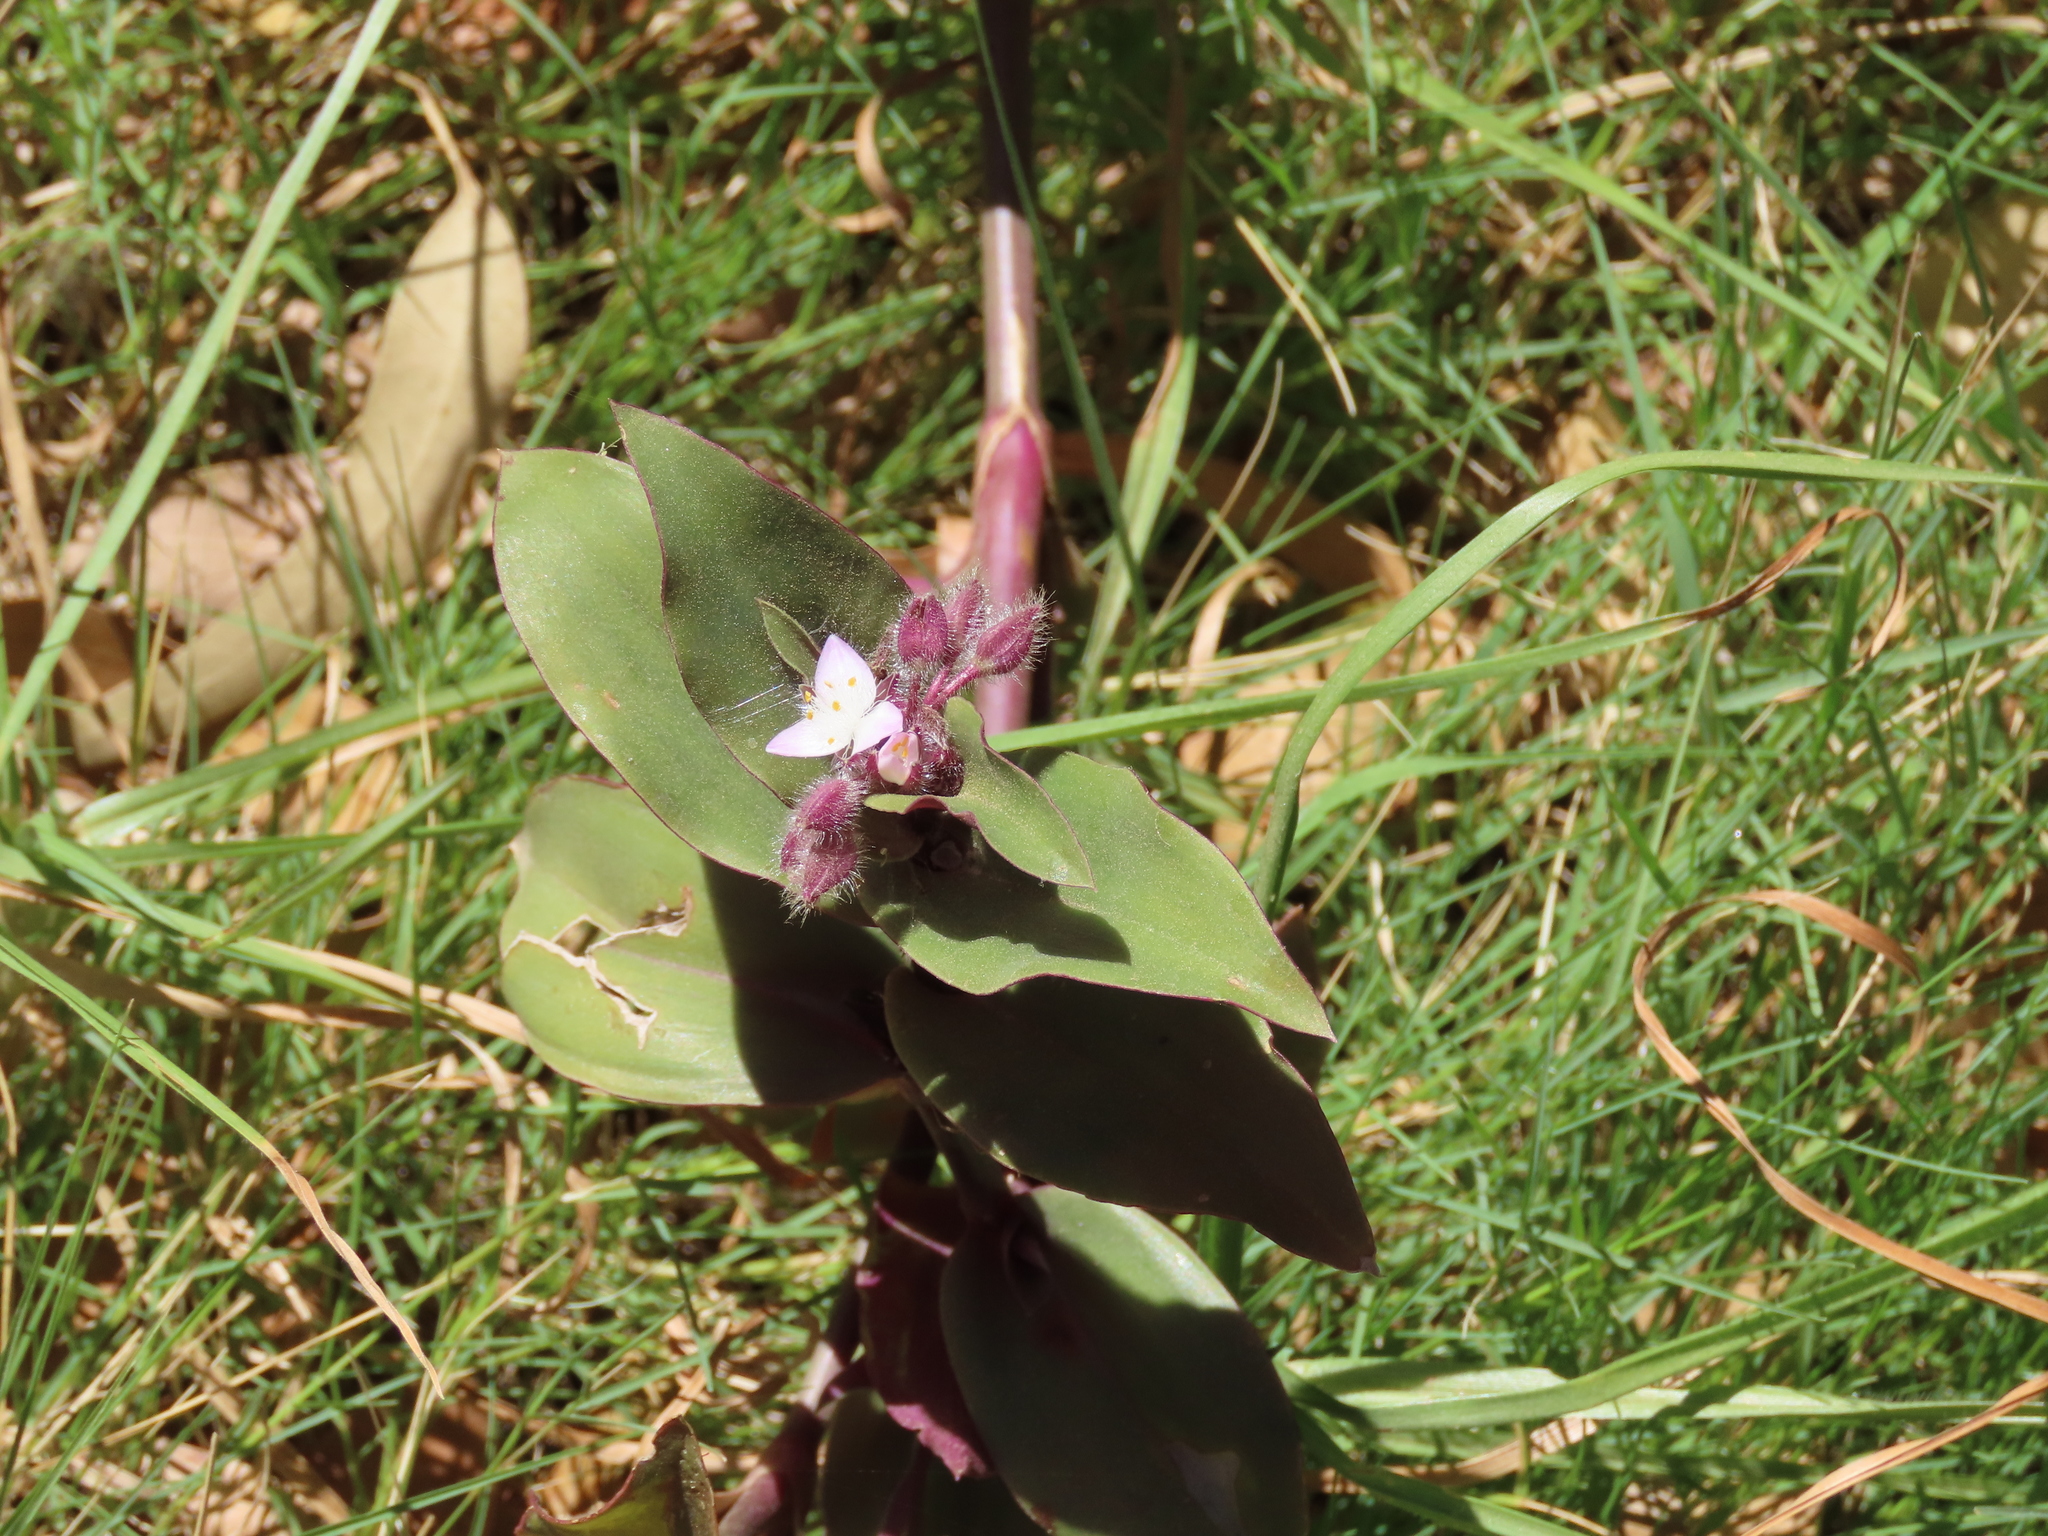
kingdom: Plantae
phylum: Tracheophyta
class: Liliopsida
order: Commelinales
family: Commelinaceae
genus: Tradescantia
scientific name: Tradescantia cerinthoides
